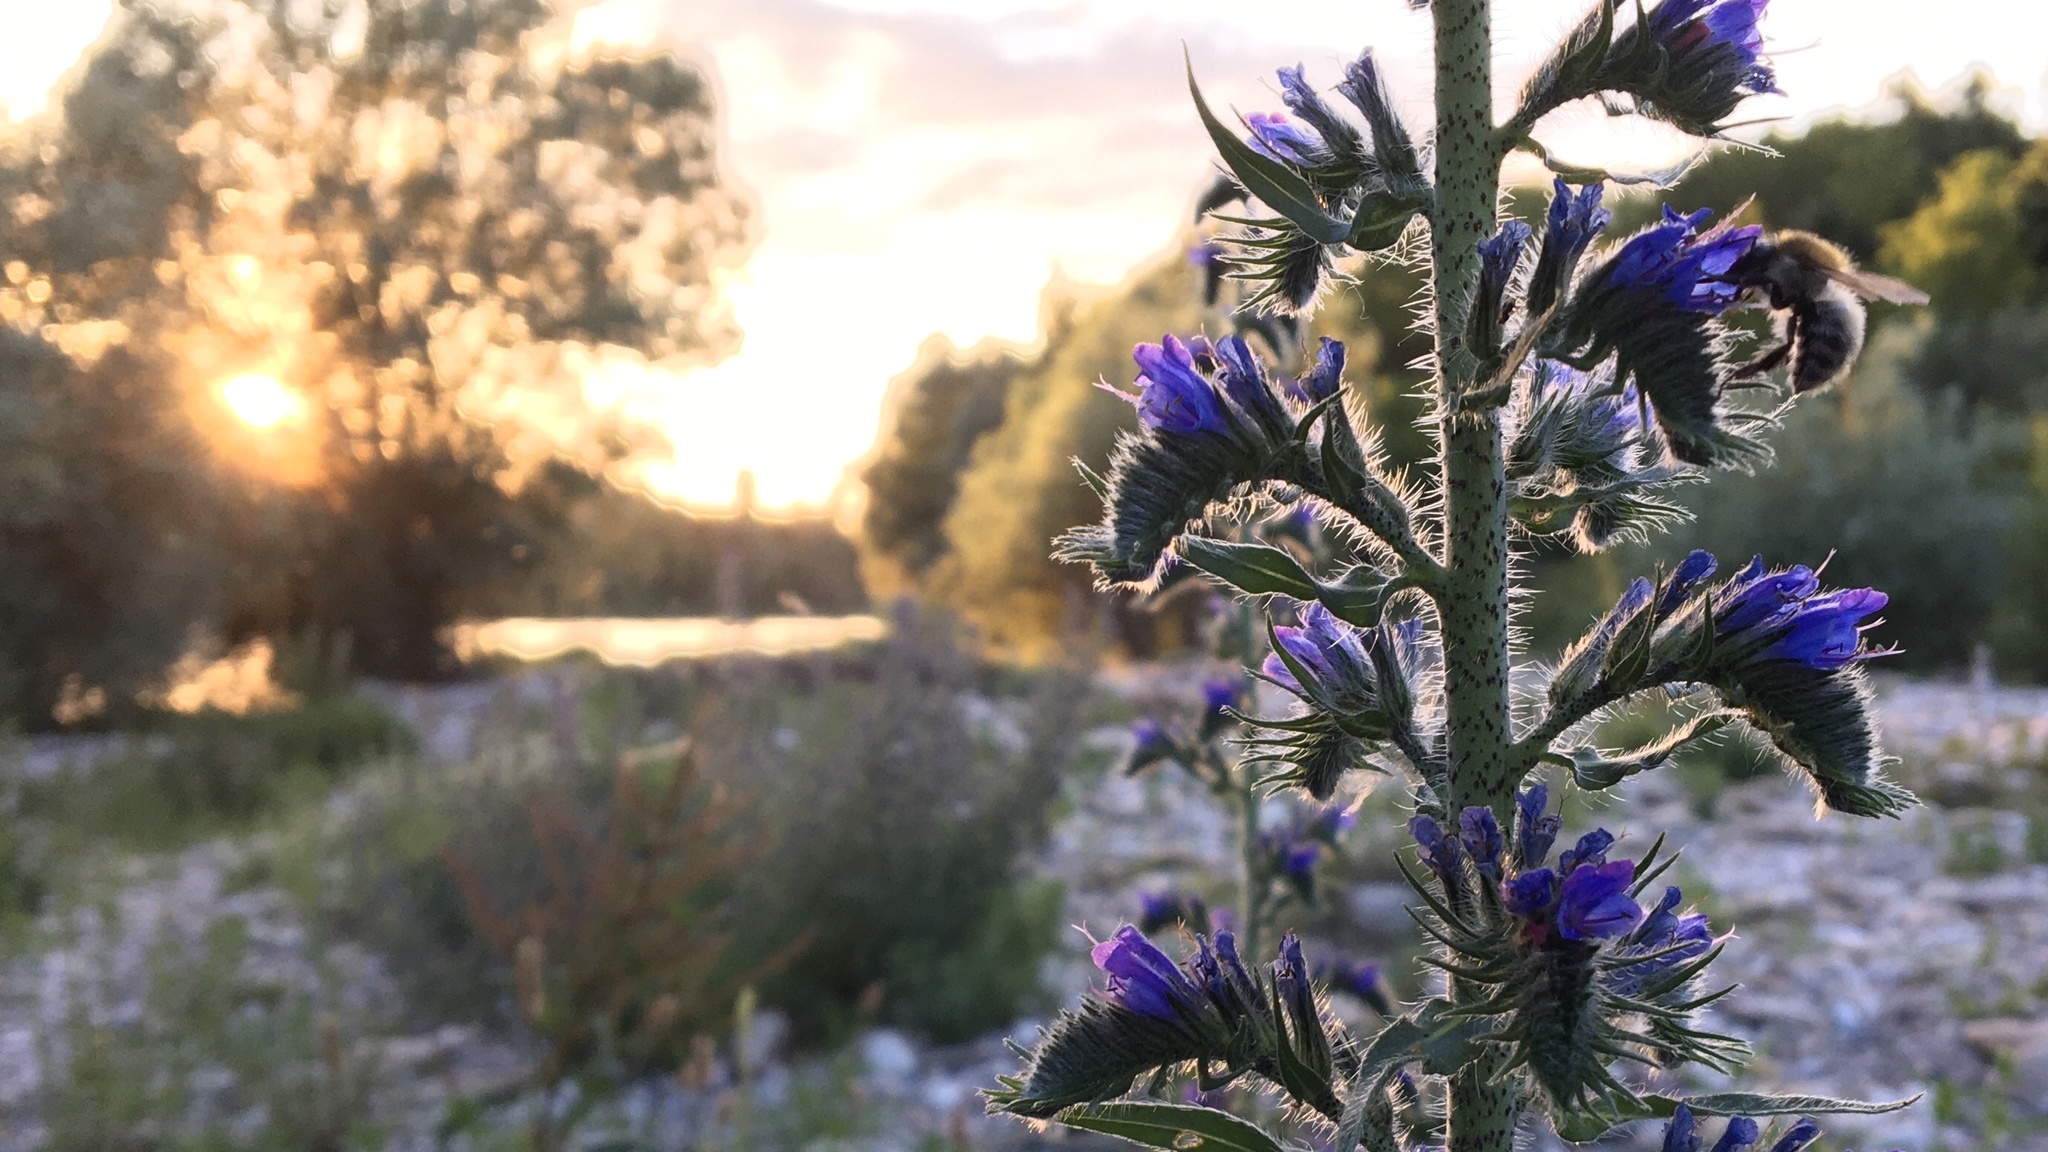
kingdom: Plantae
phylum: Tracheophyta
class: Magnoliopsida
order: Boraginales
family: Boraginaceae
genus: Echium
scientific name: Echium vulgare
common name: Common viper's bugloss
